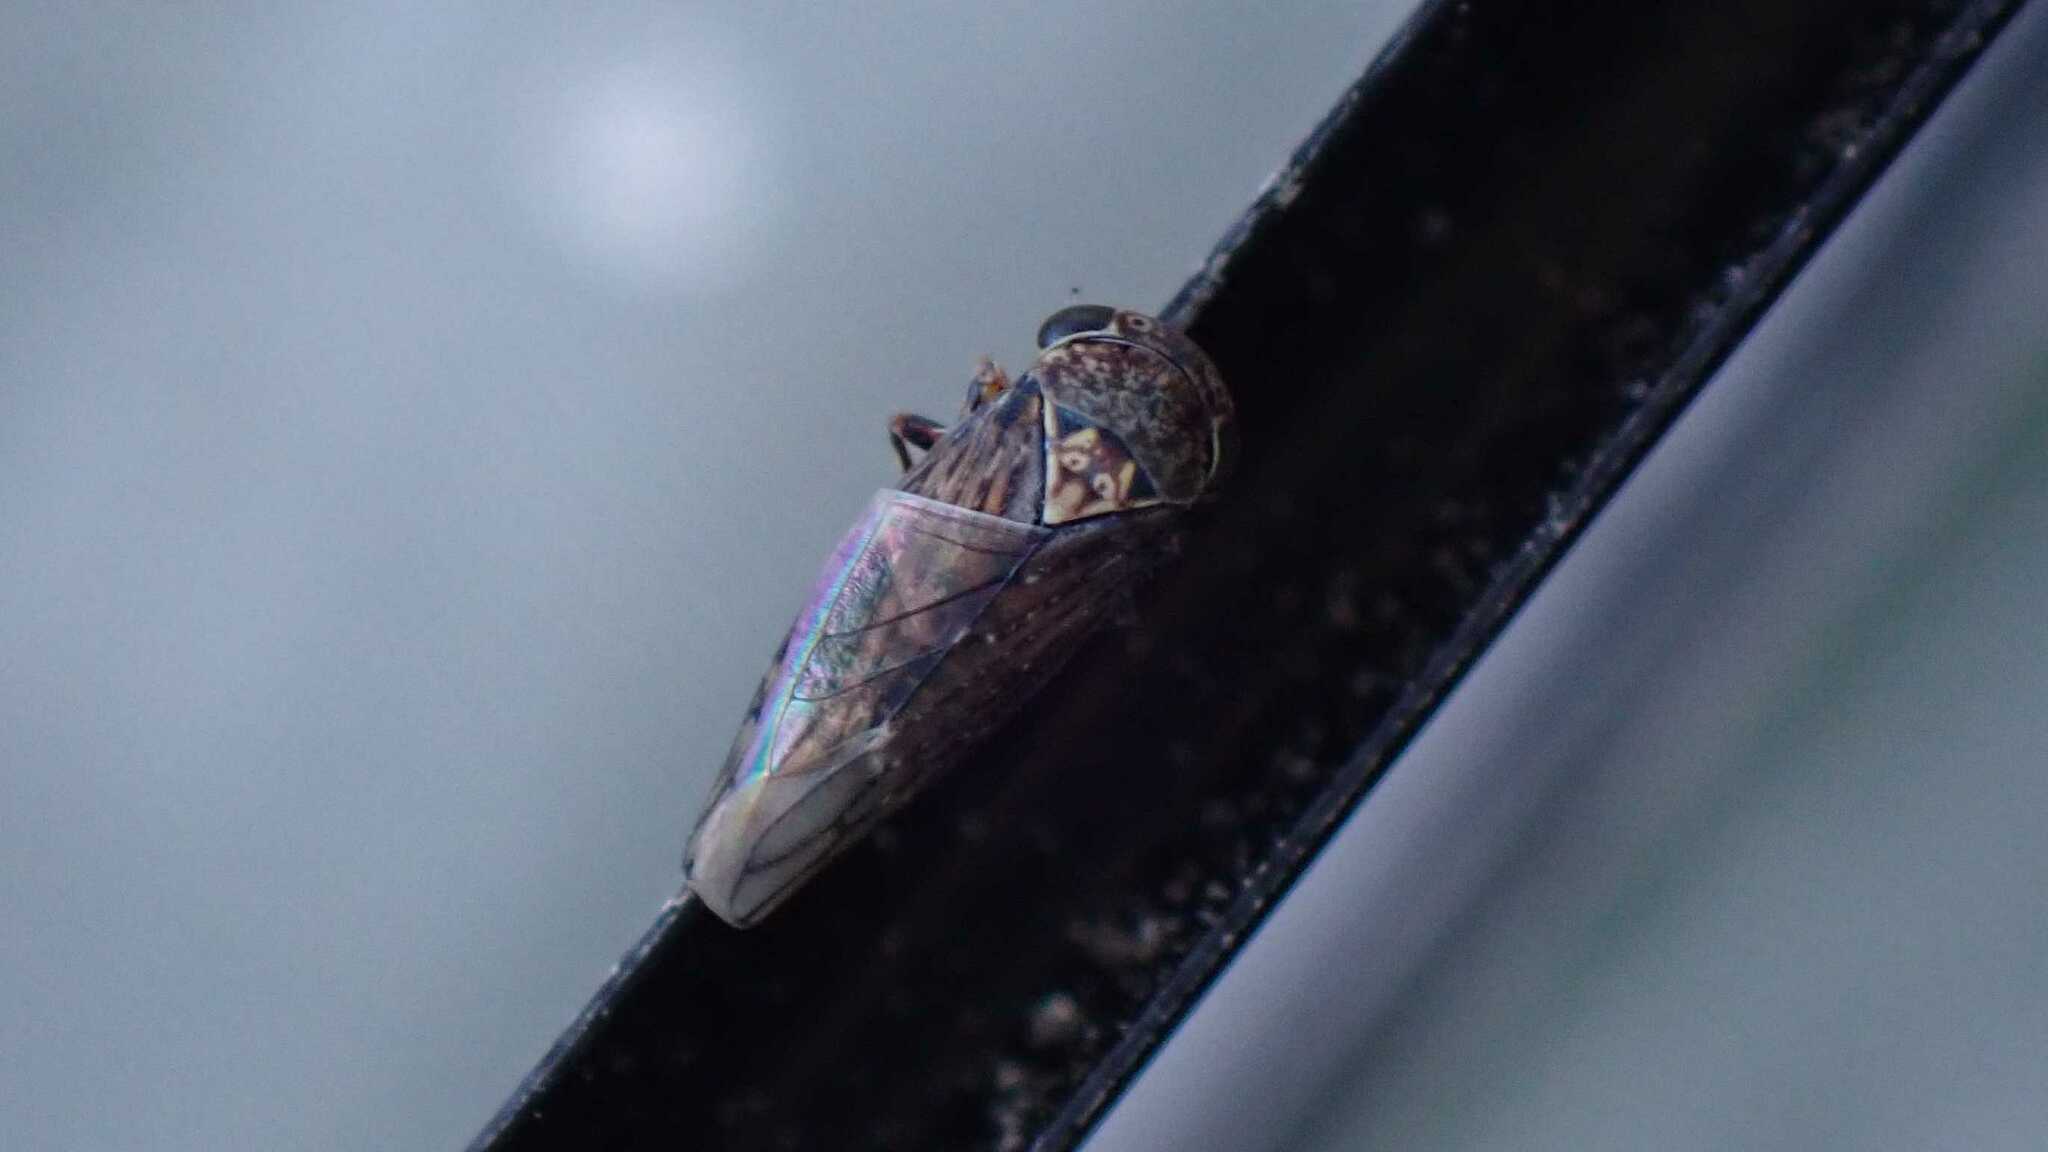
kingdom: Animalia
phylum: Arthropoda
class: Insecta
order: Hemiptera
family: Cicadellidae
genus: Acericerus
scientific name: Acericerus ribauti
